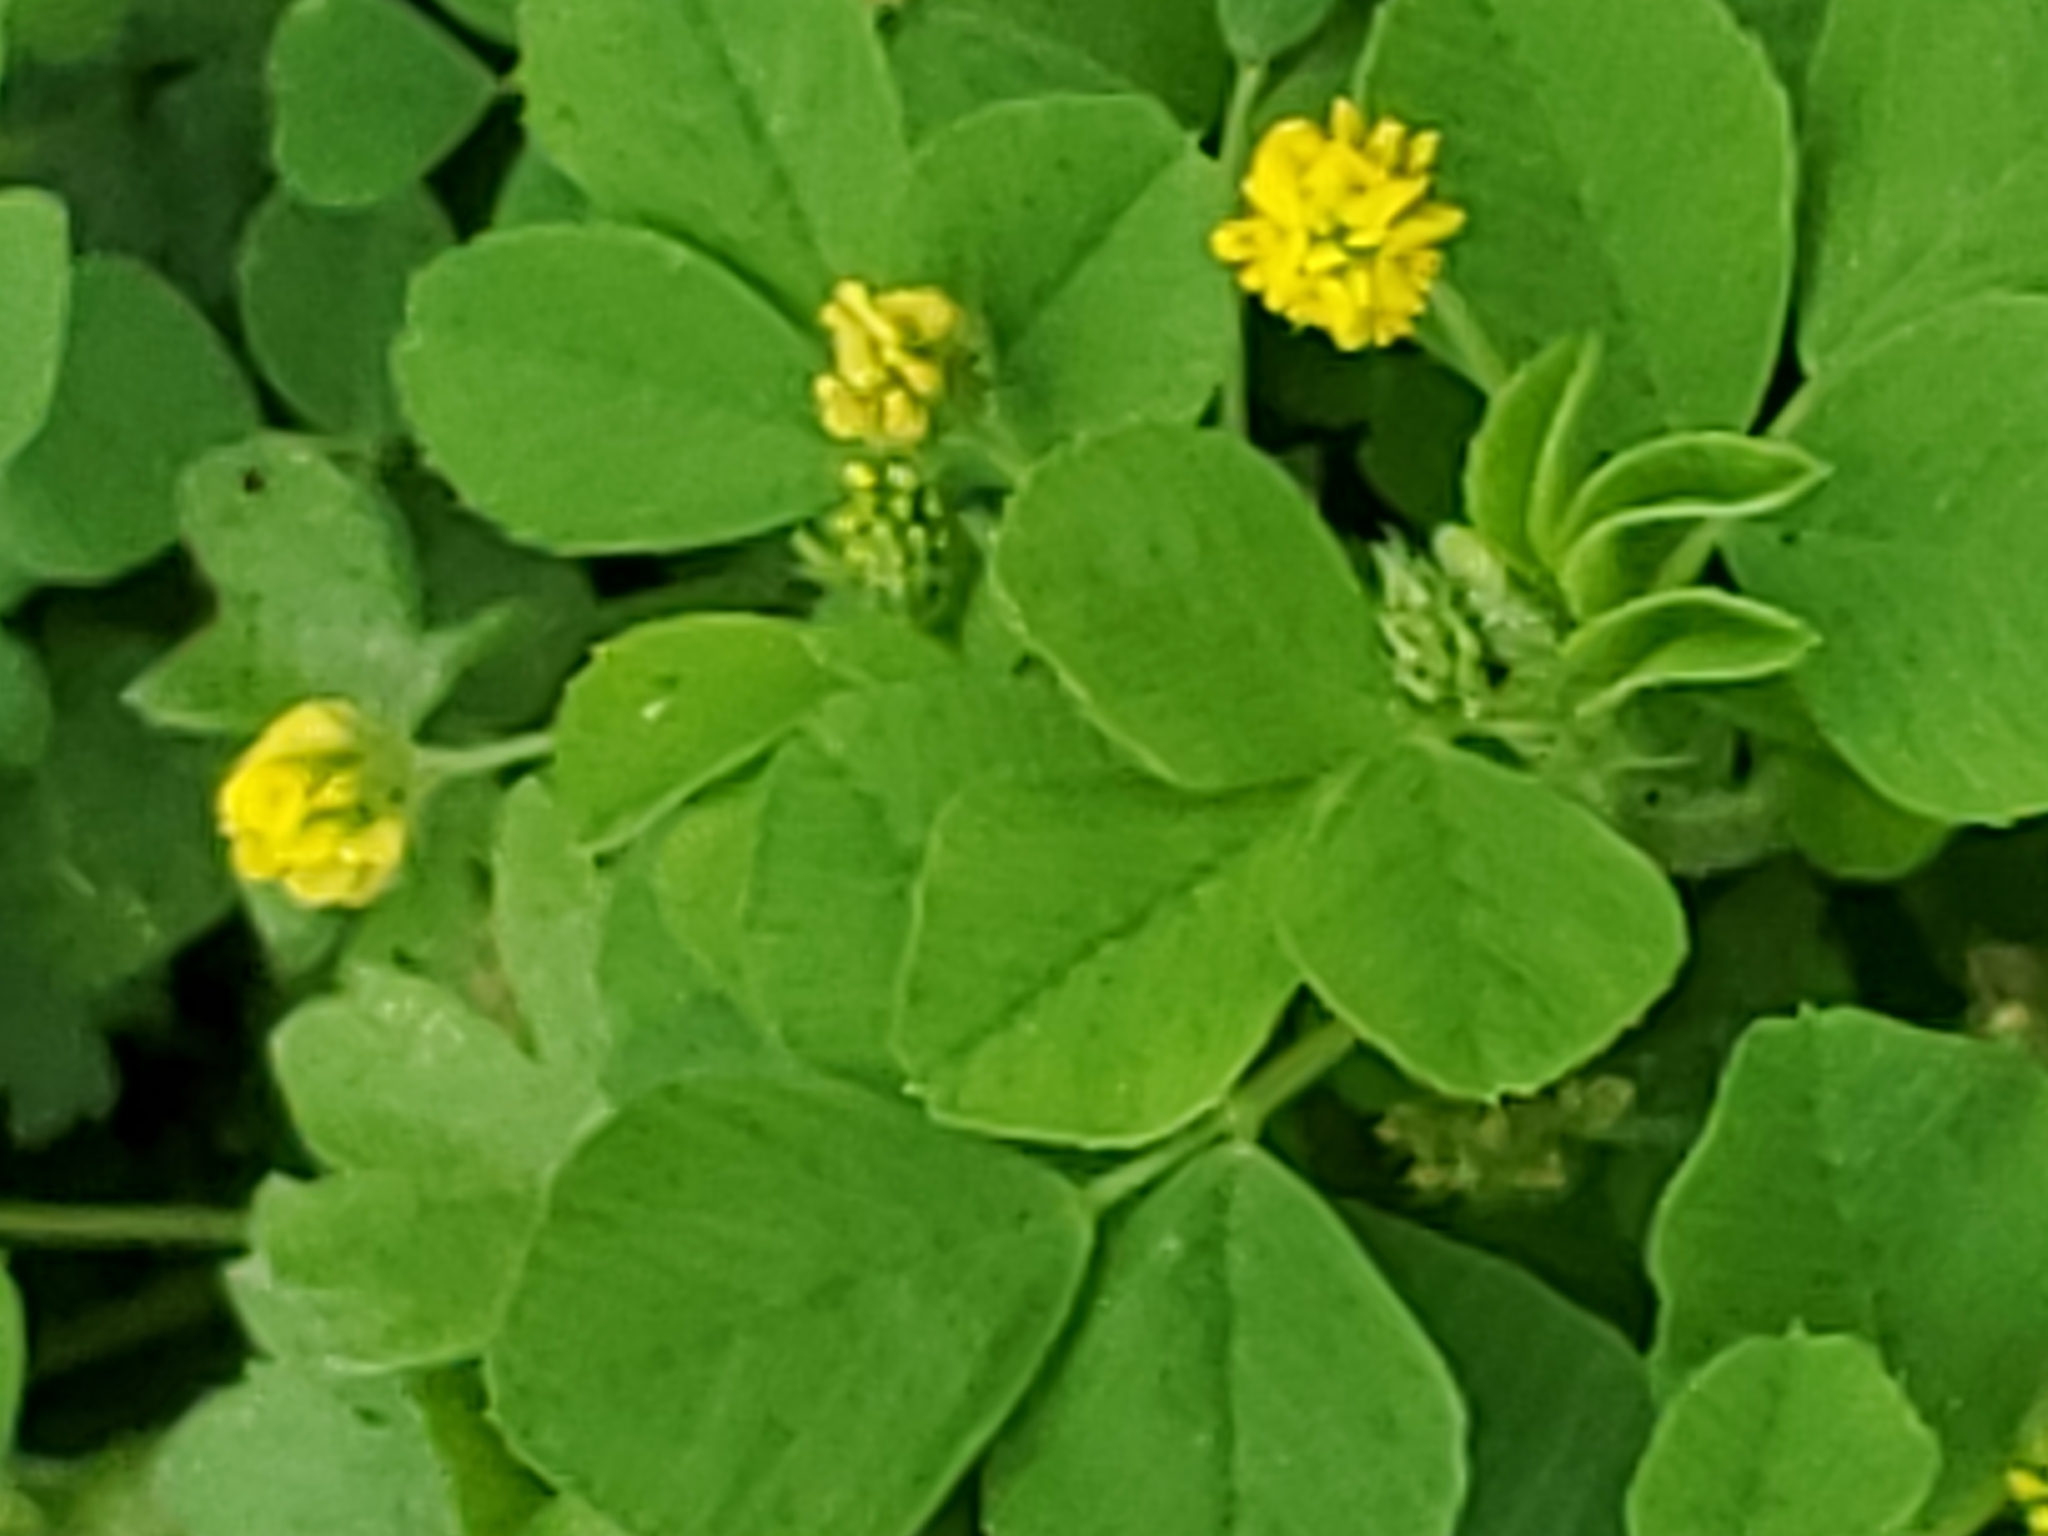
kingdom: Plantae
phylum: Tracheophyta
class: Magnoliopsida
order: Fabales
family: Fabaceae
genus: Medicago
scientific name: Medicago lupulina
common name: Black medick
